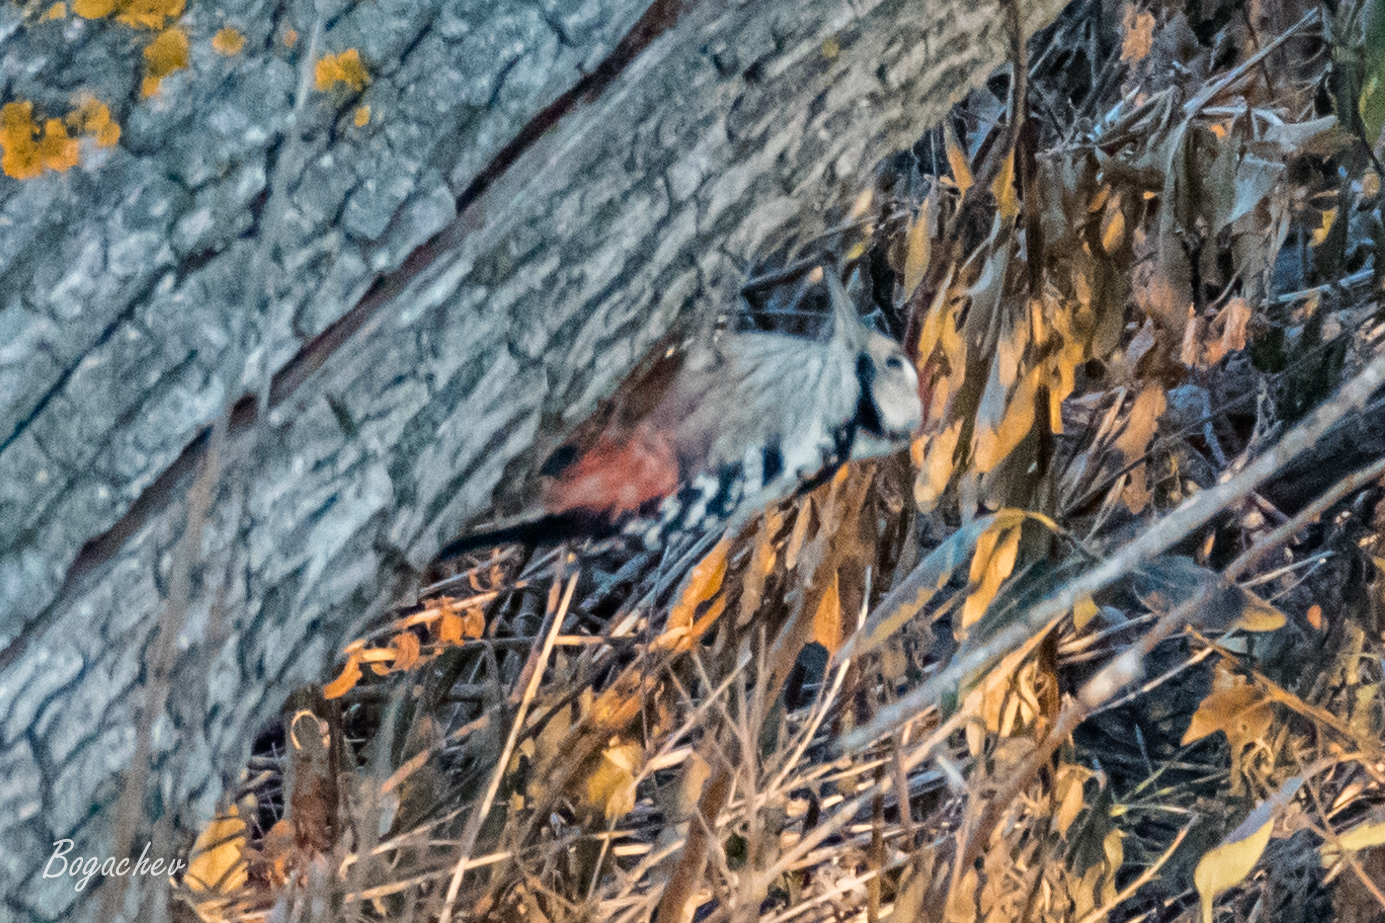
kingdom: Animalia
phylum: Chordata
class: Aves
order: Piciformes
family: Picidae
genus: Dendrocopos
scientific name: Dendrocopos leucotos
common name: White-backed woodpecker
